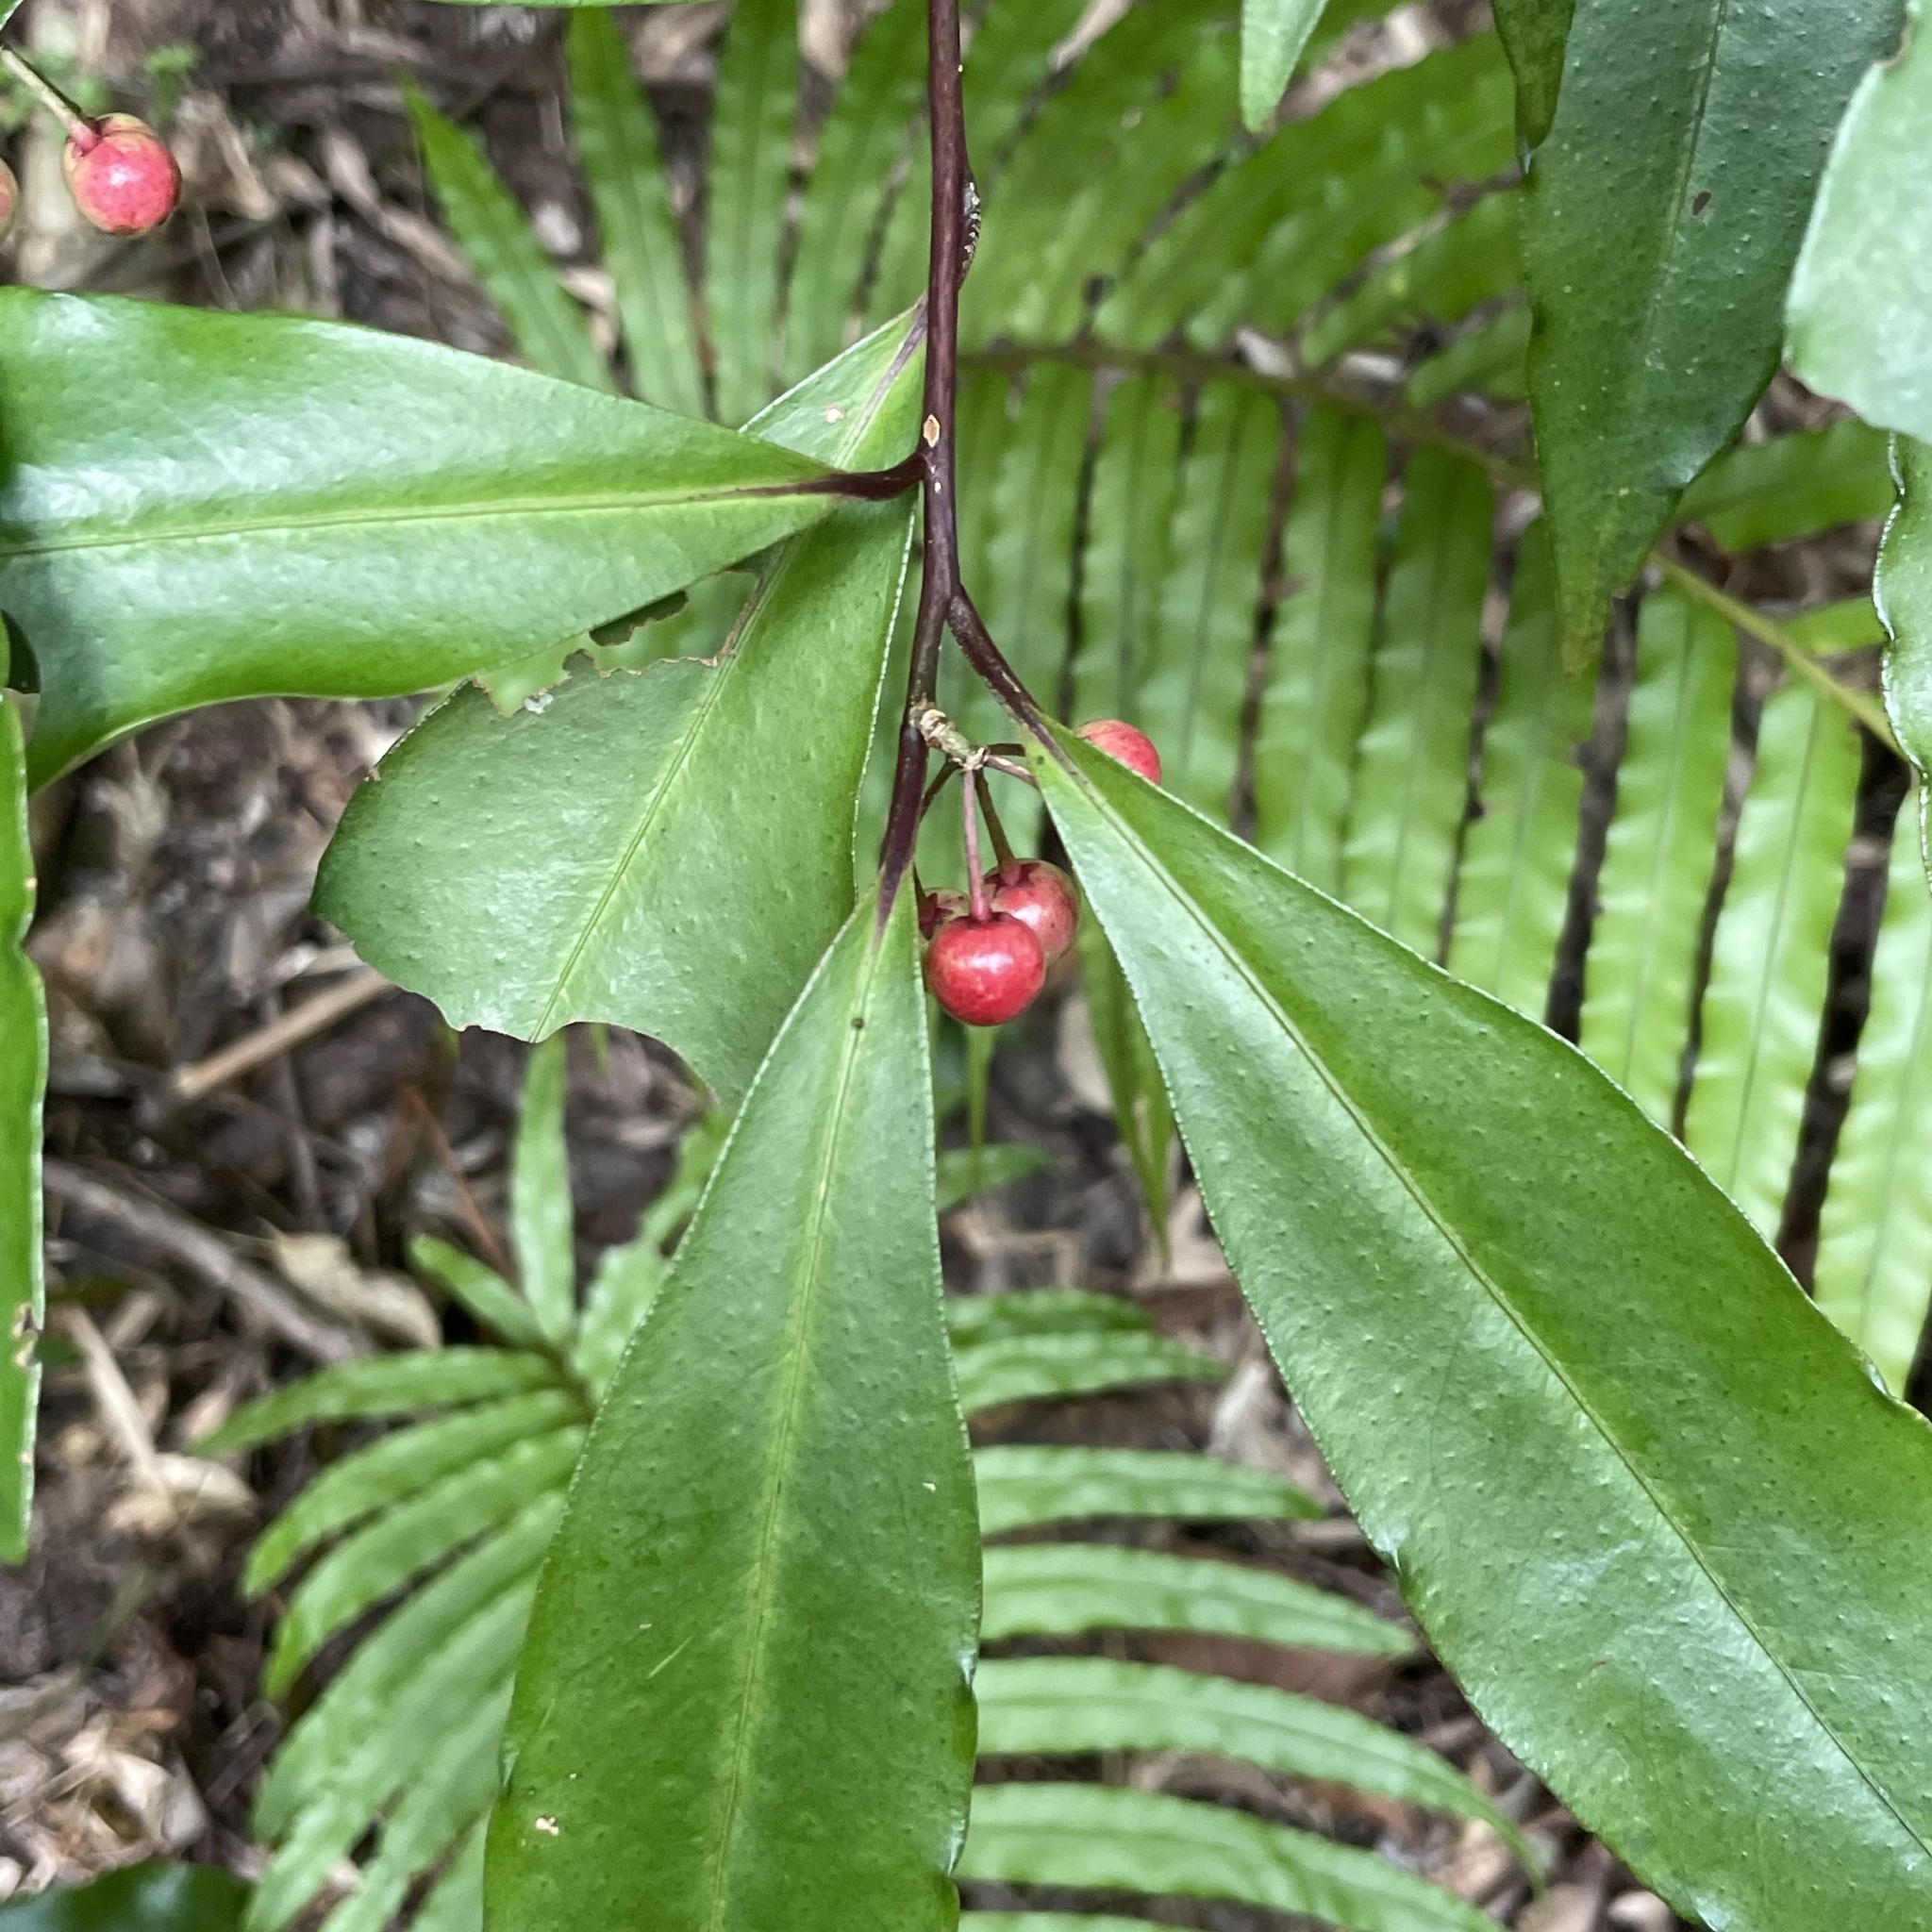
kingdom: Plantae
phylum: Tracheophyta
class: Magnoliopsida
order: Ericales
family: Primulaceae
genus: Ardisia
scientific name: Ardisia crenata
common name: Hen's eyes
